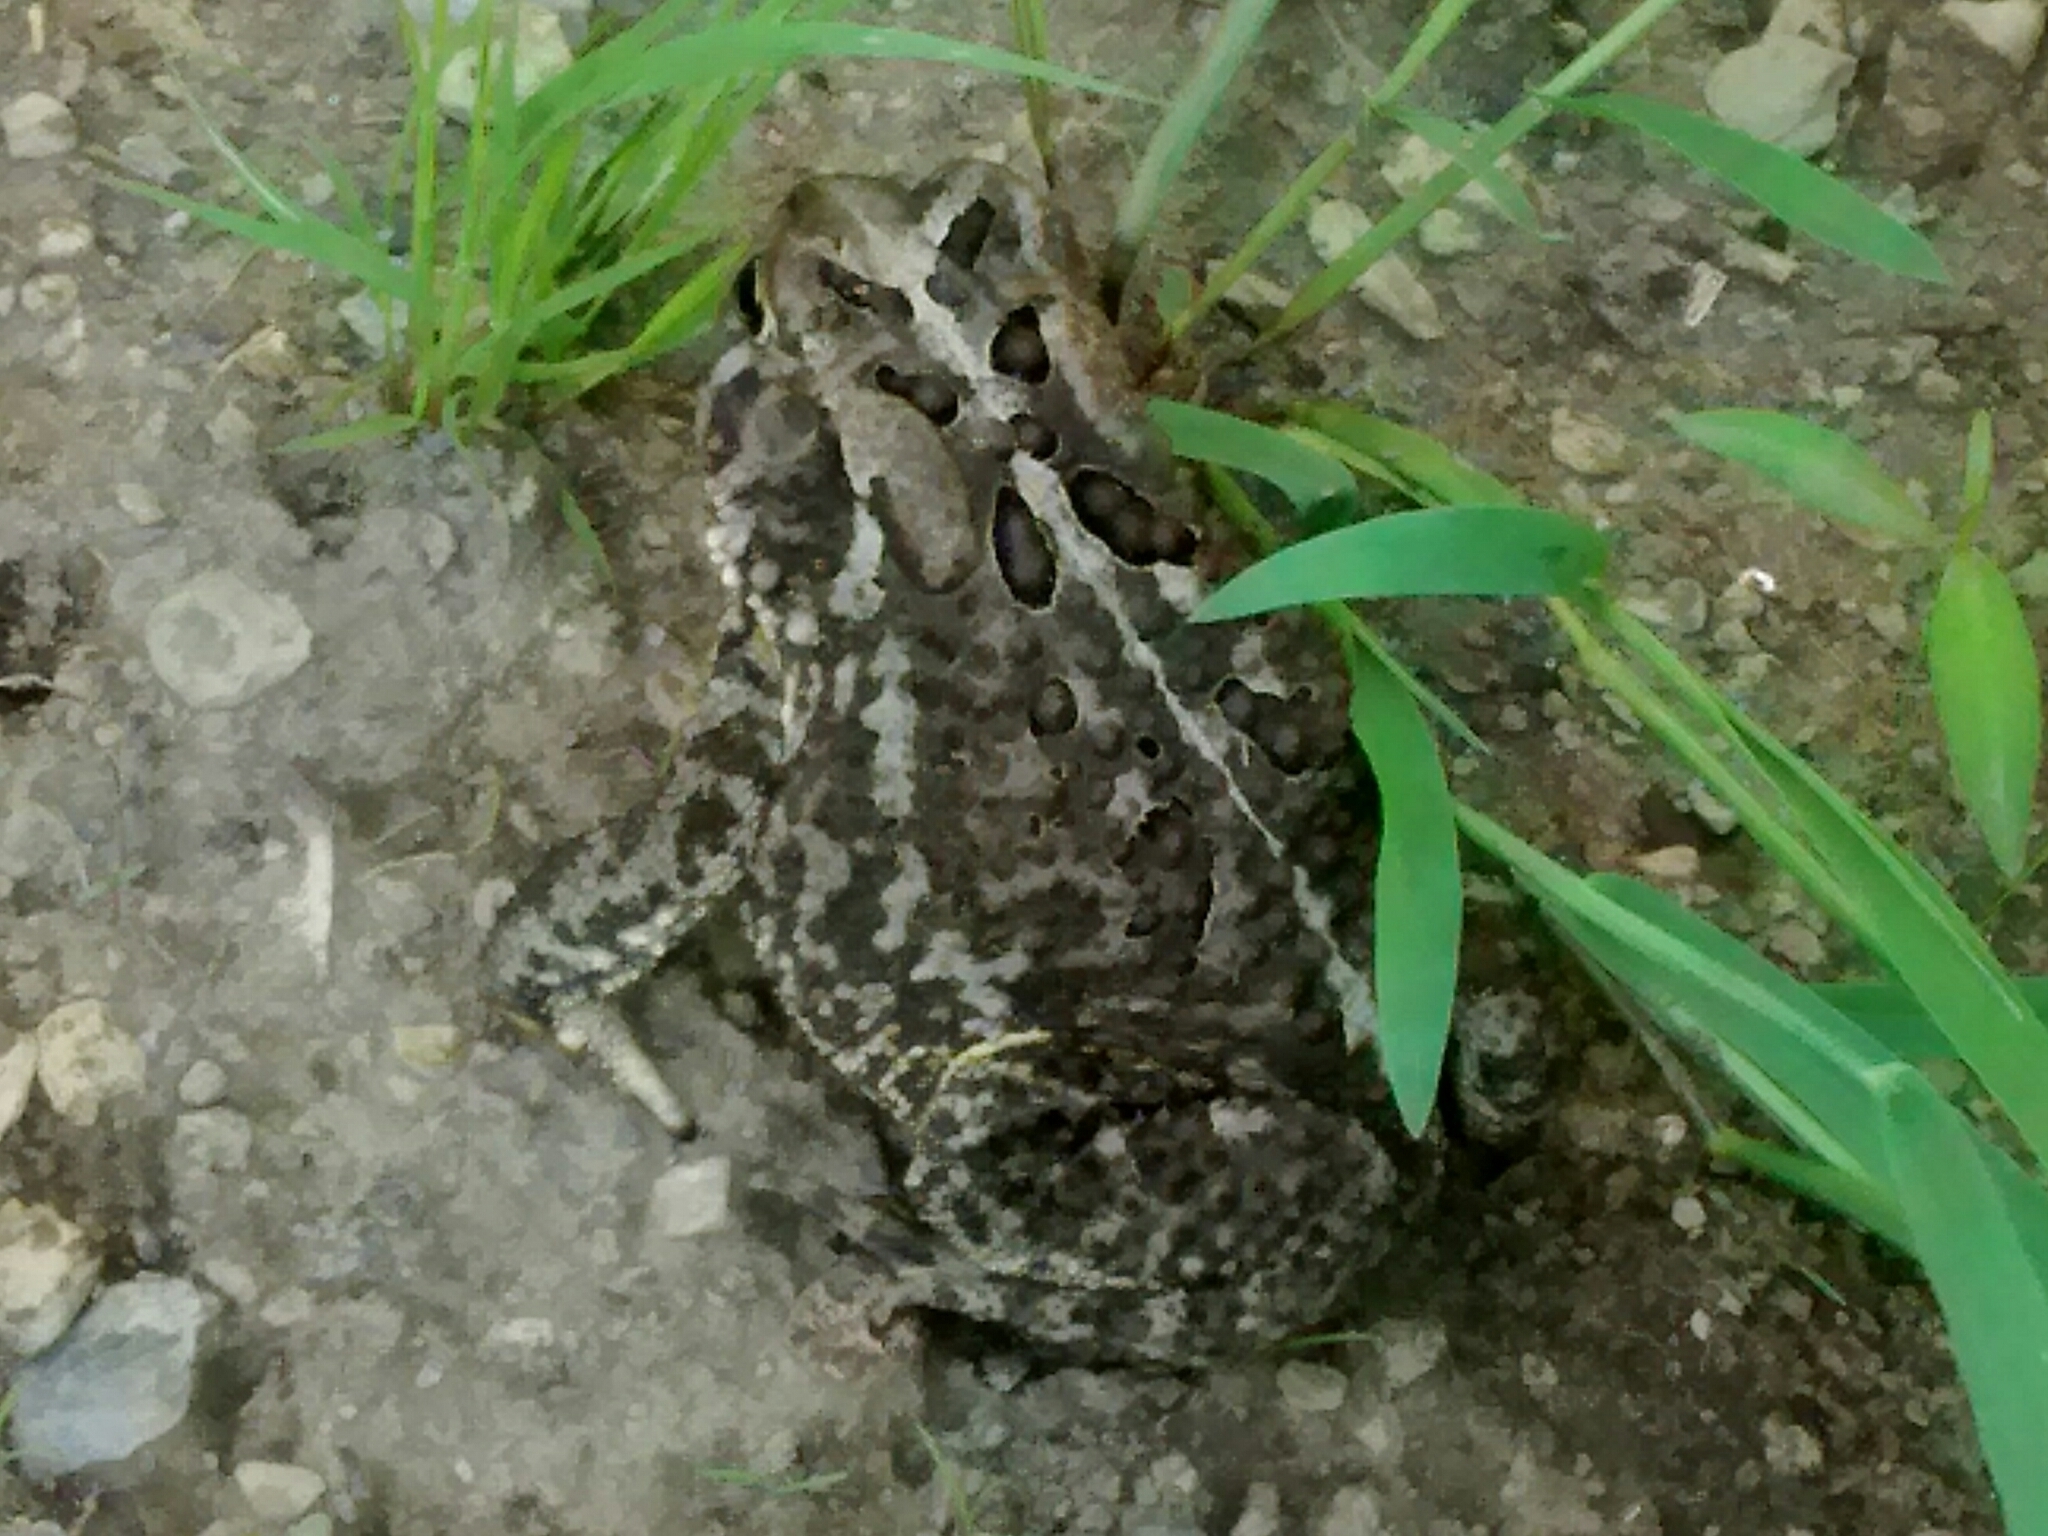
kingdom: Animalia
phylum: Chordata
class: Amphibia
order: Anura
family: Bufonidae
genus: Anaxyrus
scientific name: Anaxyrus americanus
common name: American toad
